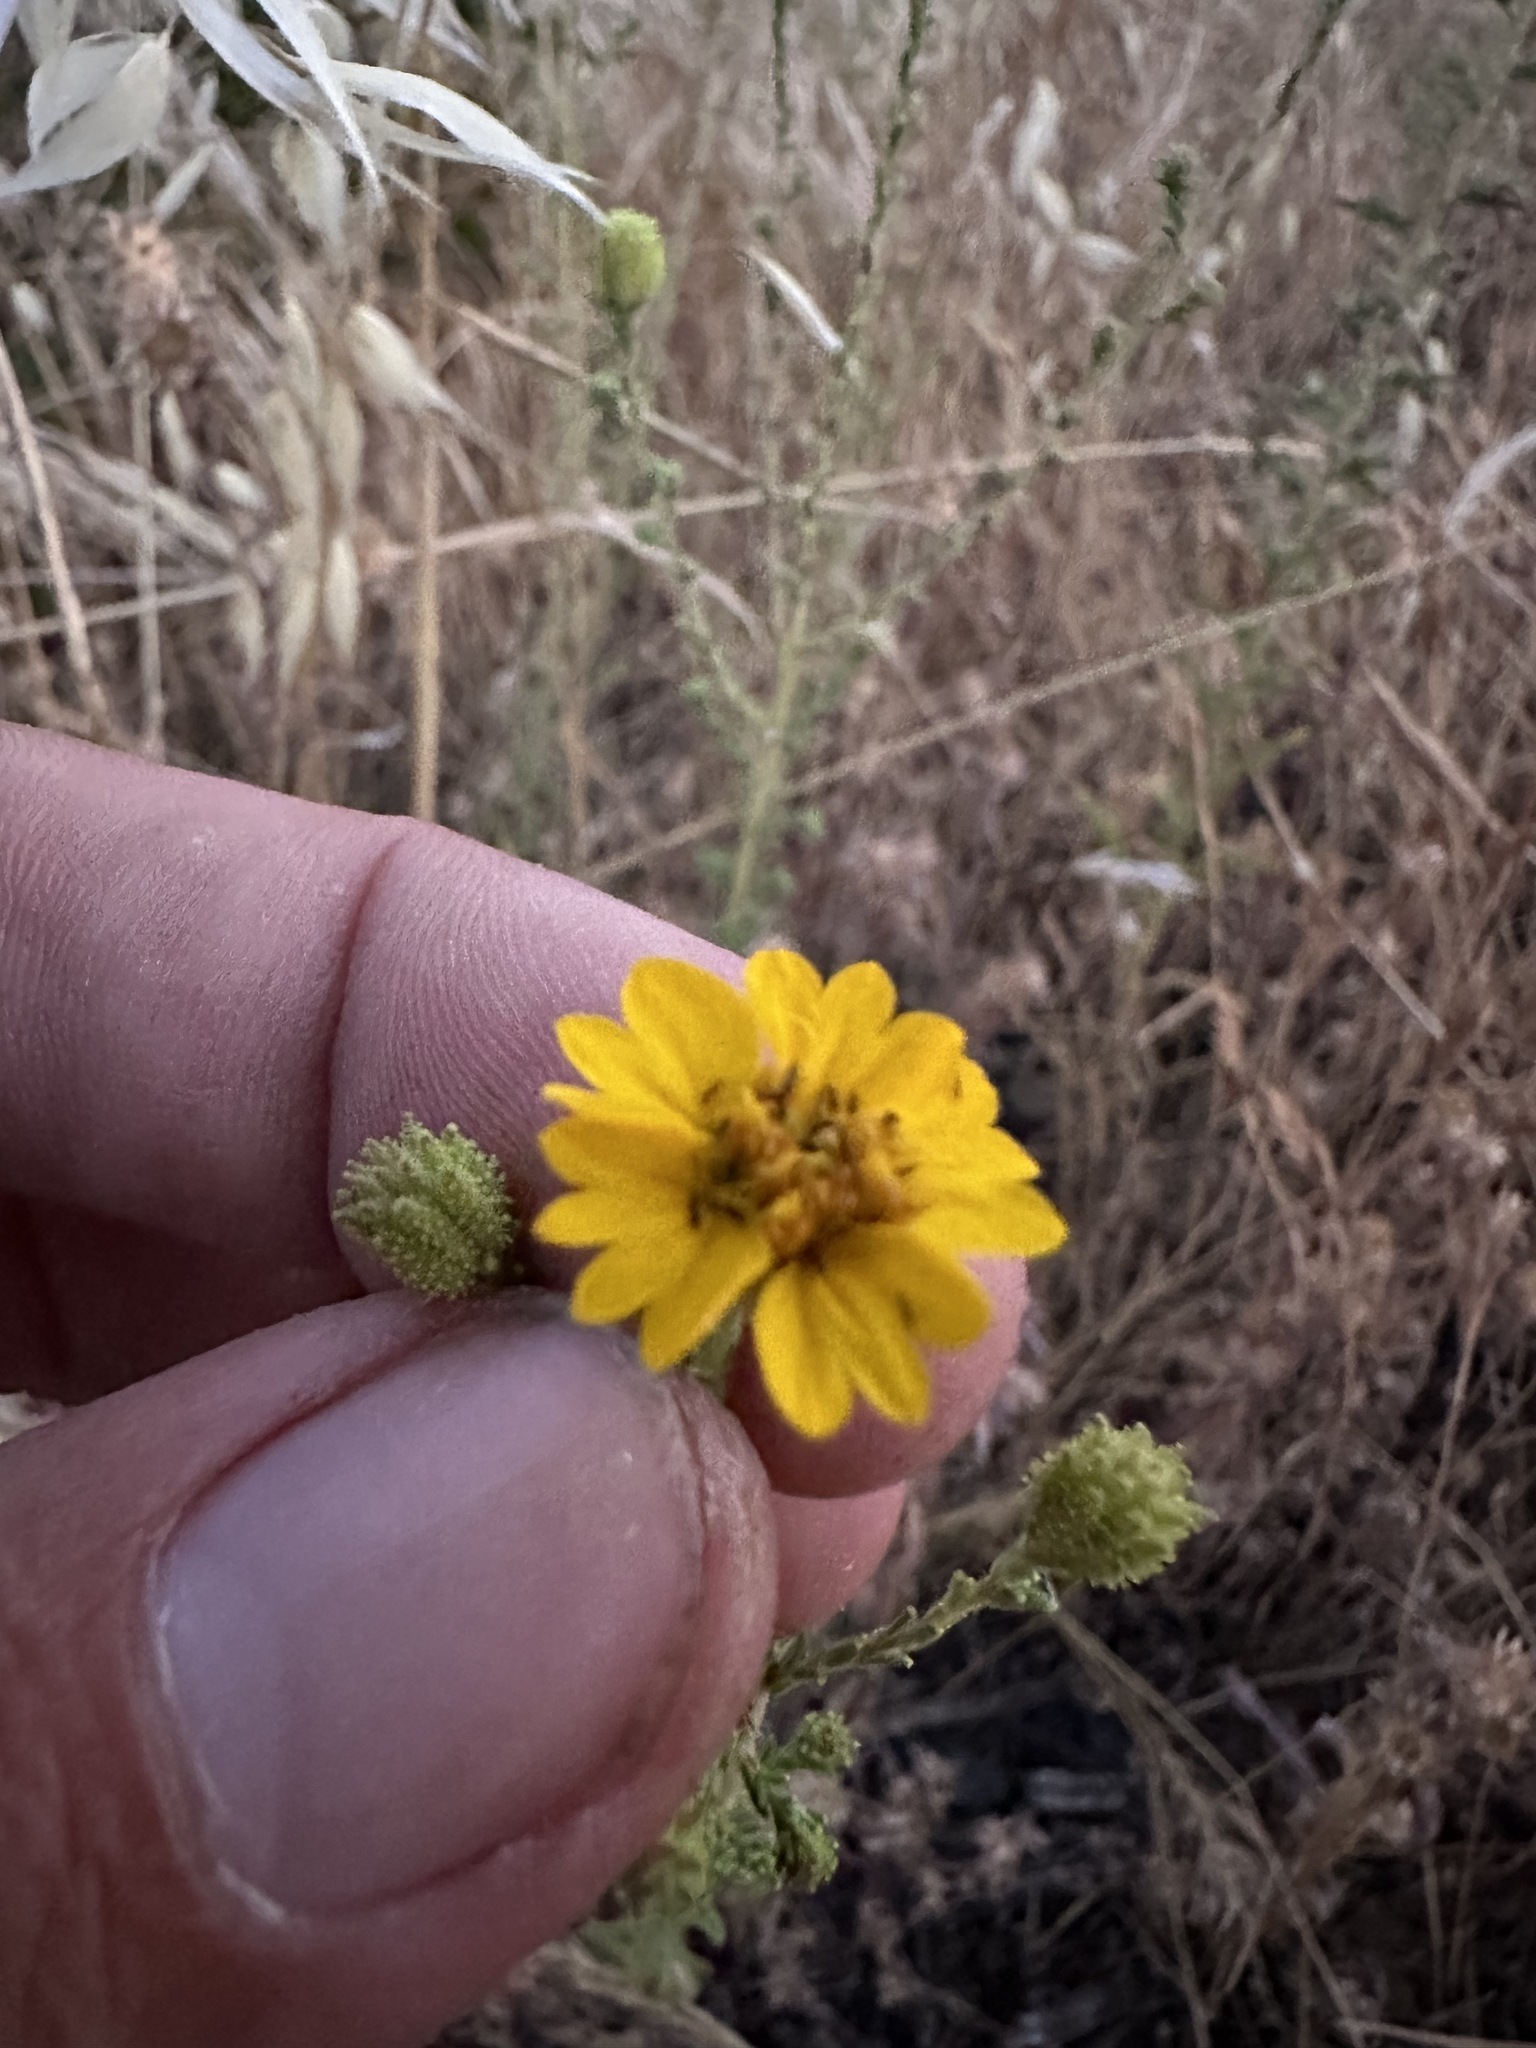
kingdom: Plantae
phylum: Tracheophyta
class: Magnoliopsida
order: Asterales
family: Asteraceae
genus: Holocarpha
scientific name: Holocarpha heermannii
